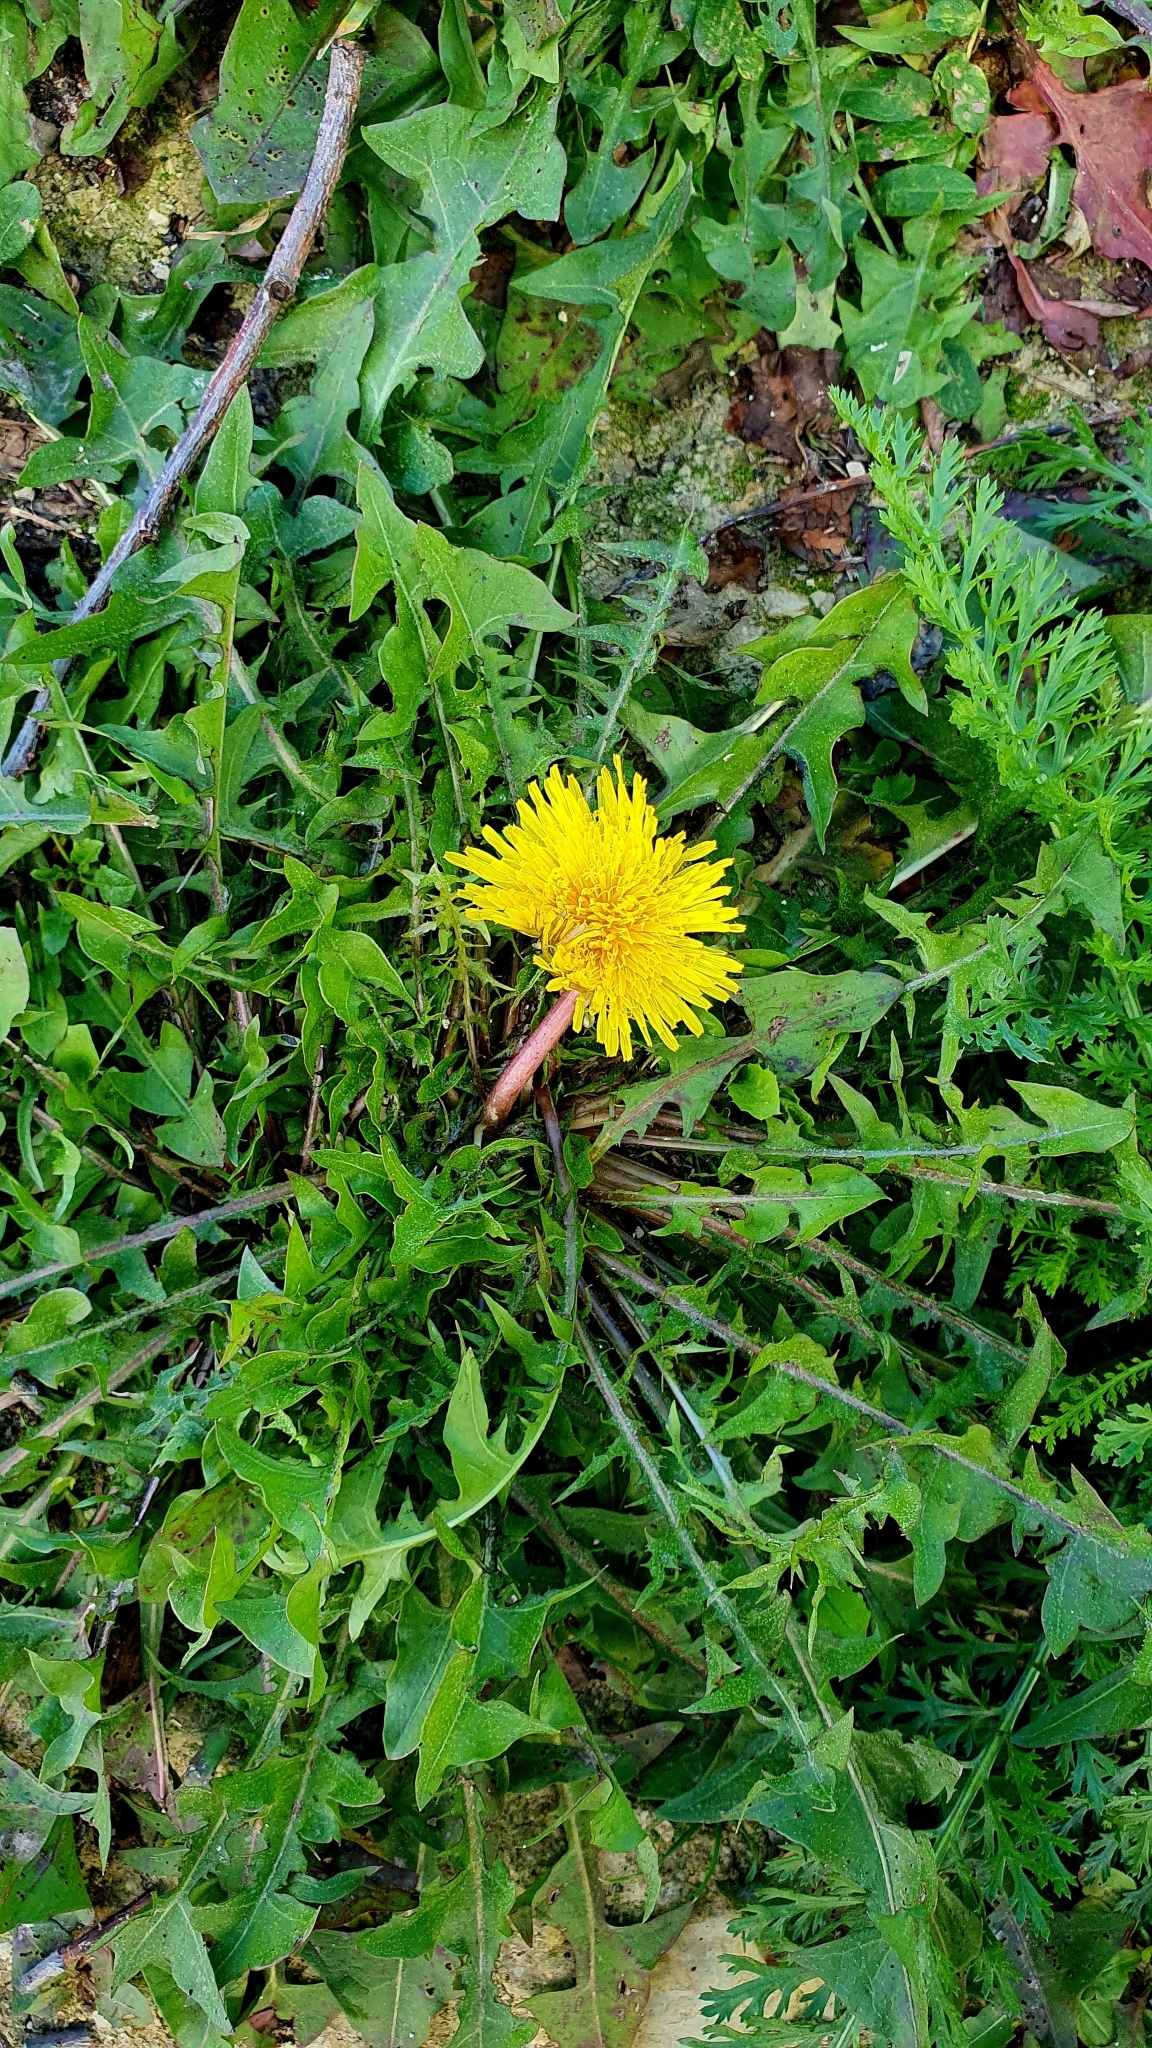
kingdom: Plantae
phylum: Tracheophyta
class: Magnoliopsida
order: Asterales
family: Asteraceae
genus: Taraxacum
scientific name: Taraxacum officinale
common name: Common dandelion
